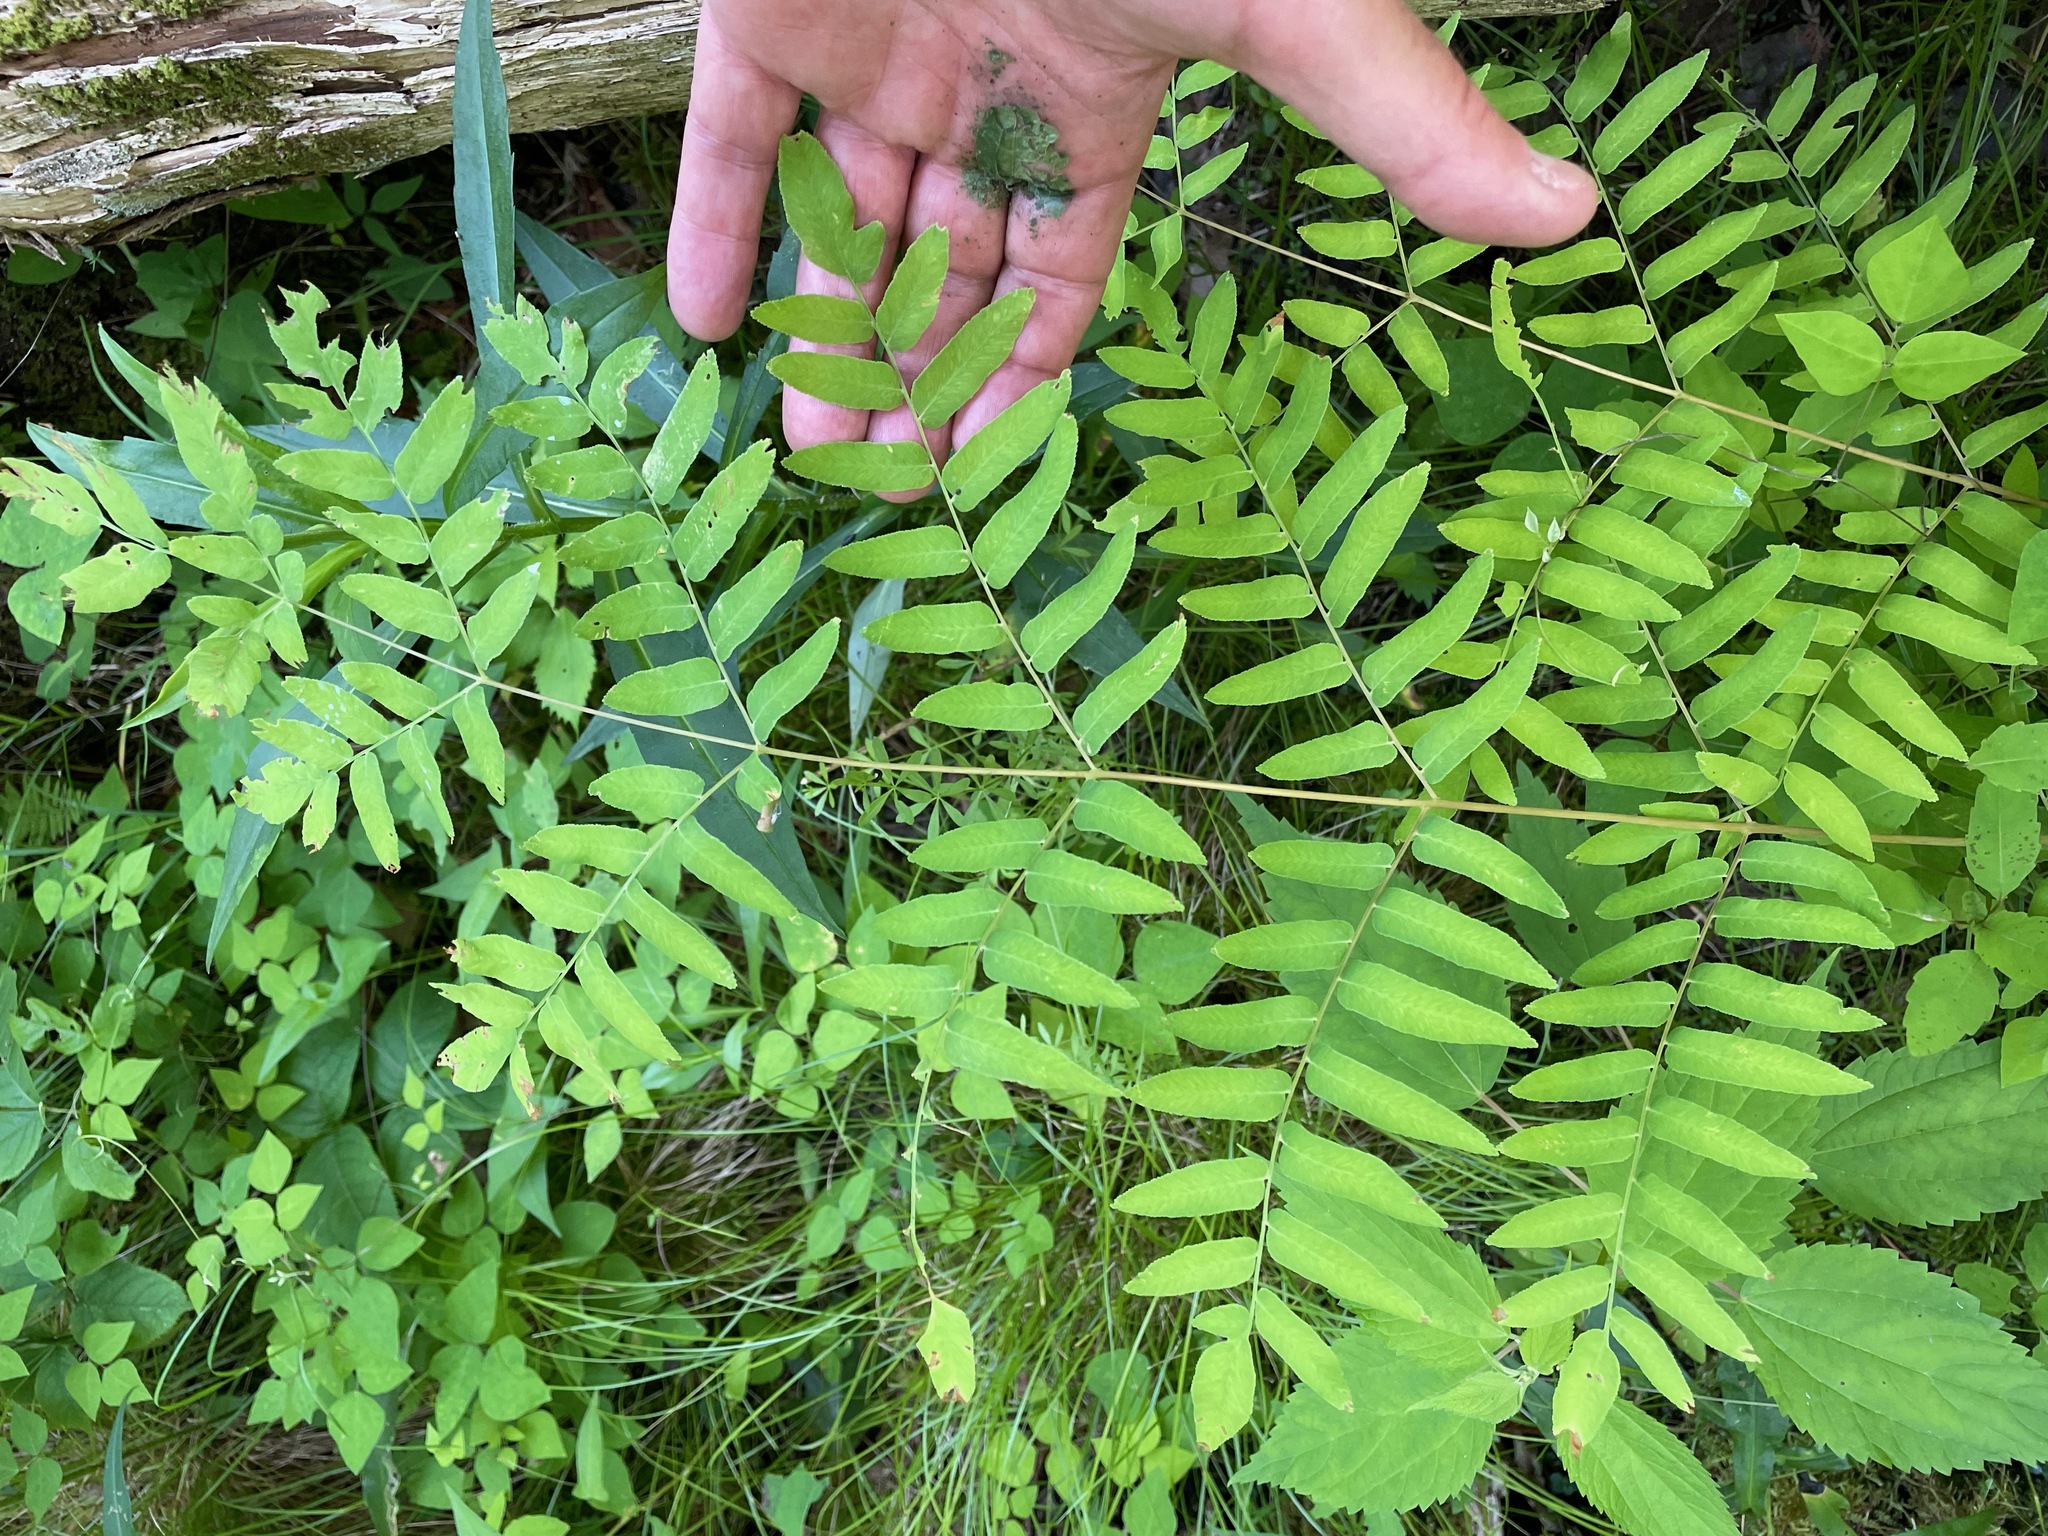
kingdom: Plantae
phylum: Tracheophyta
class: Polypodiopsida
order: Osmundales
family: Osmundaceae
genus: Osmunda
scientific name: Osmunda spectabilis
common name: American royal fern
